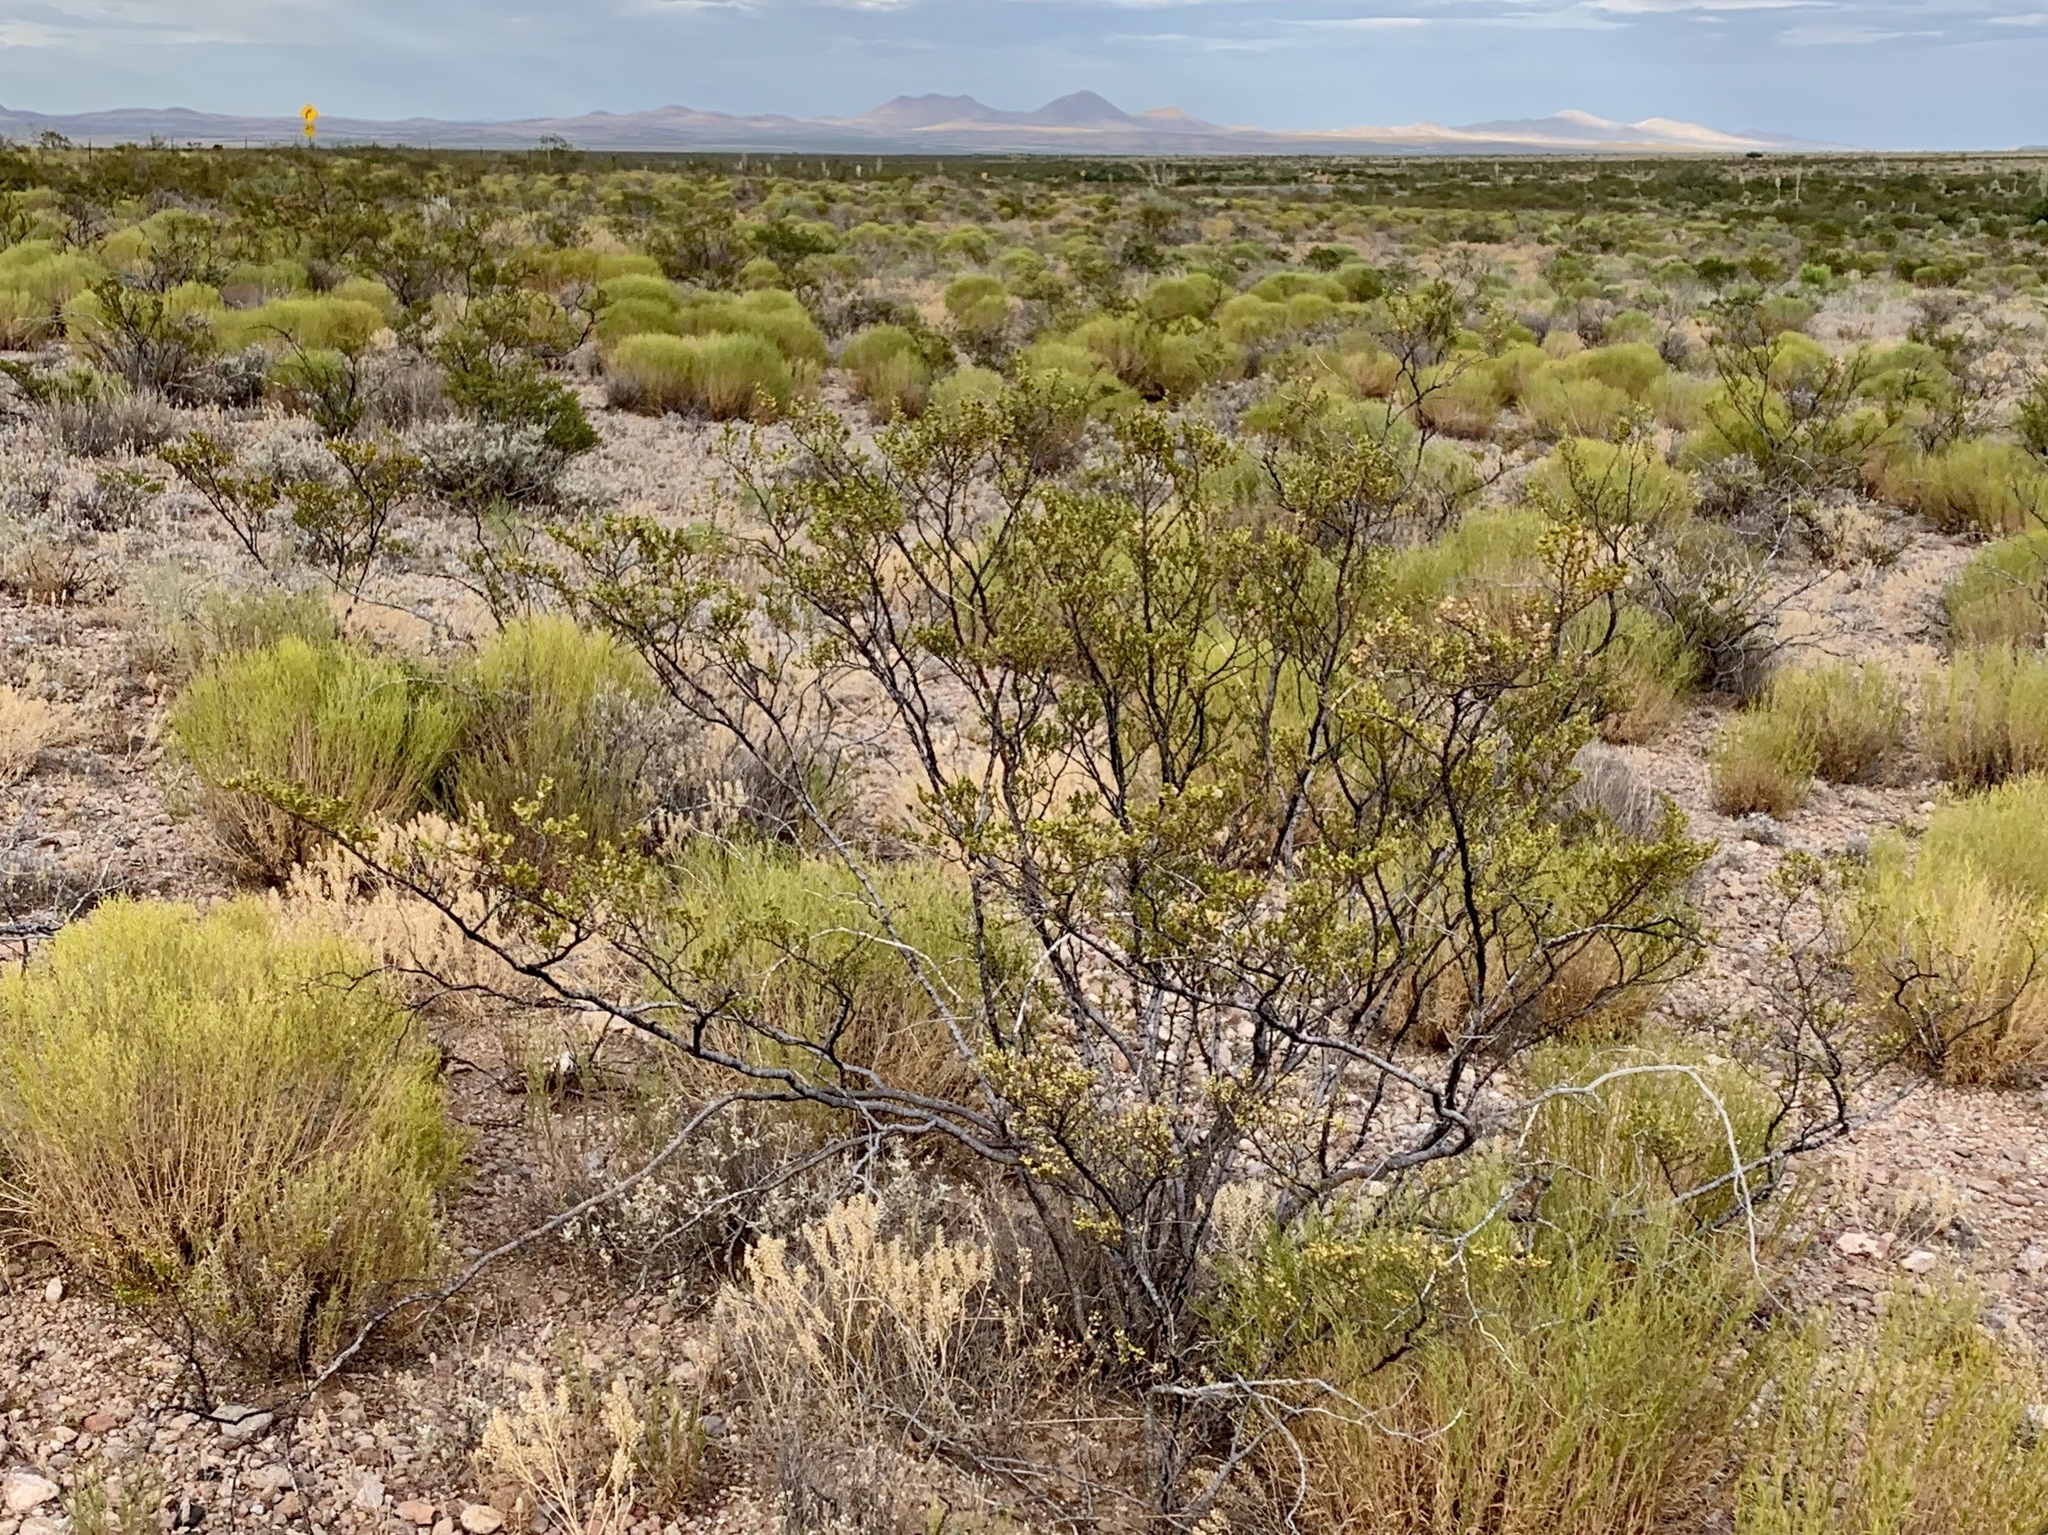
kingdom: Plantae
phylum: Tracheophyta
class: Magnoliopsida
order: Zygophyllales
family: Zygophyllaceae
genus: Larrea
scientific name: Larrea tridentata
